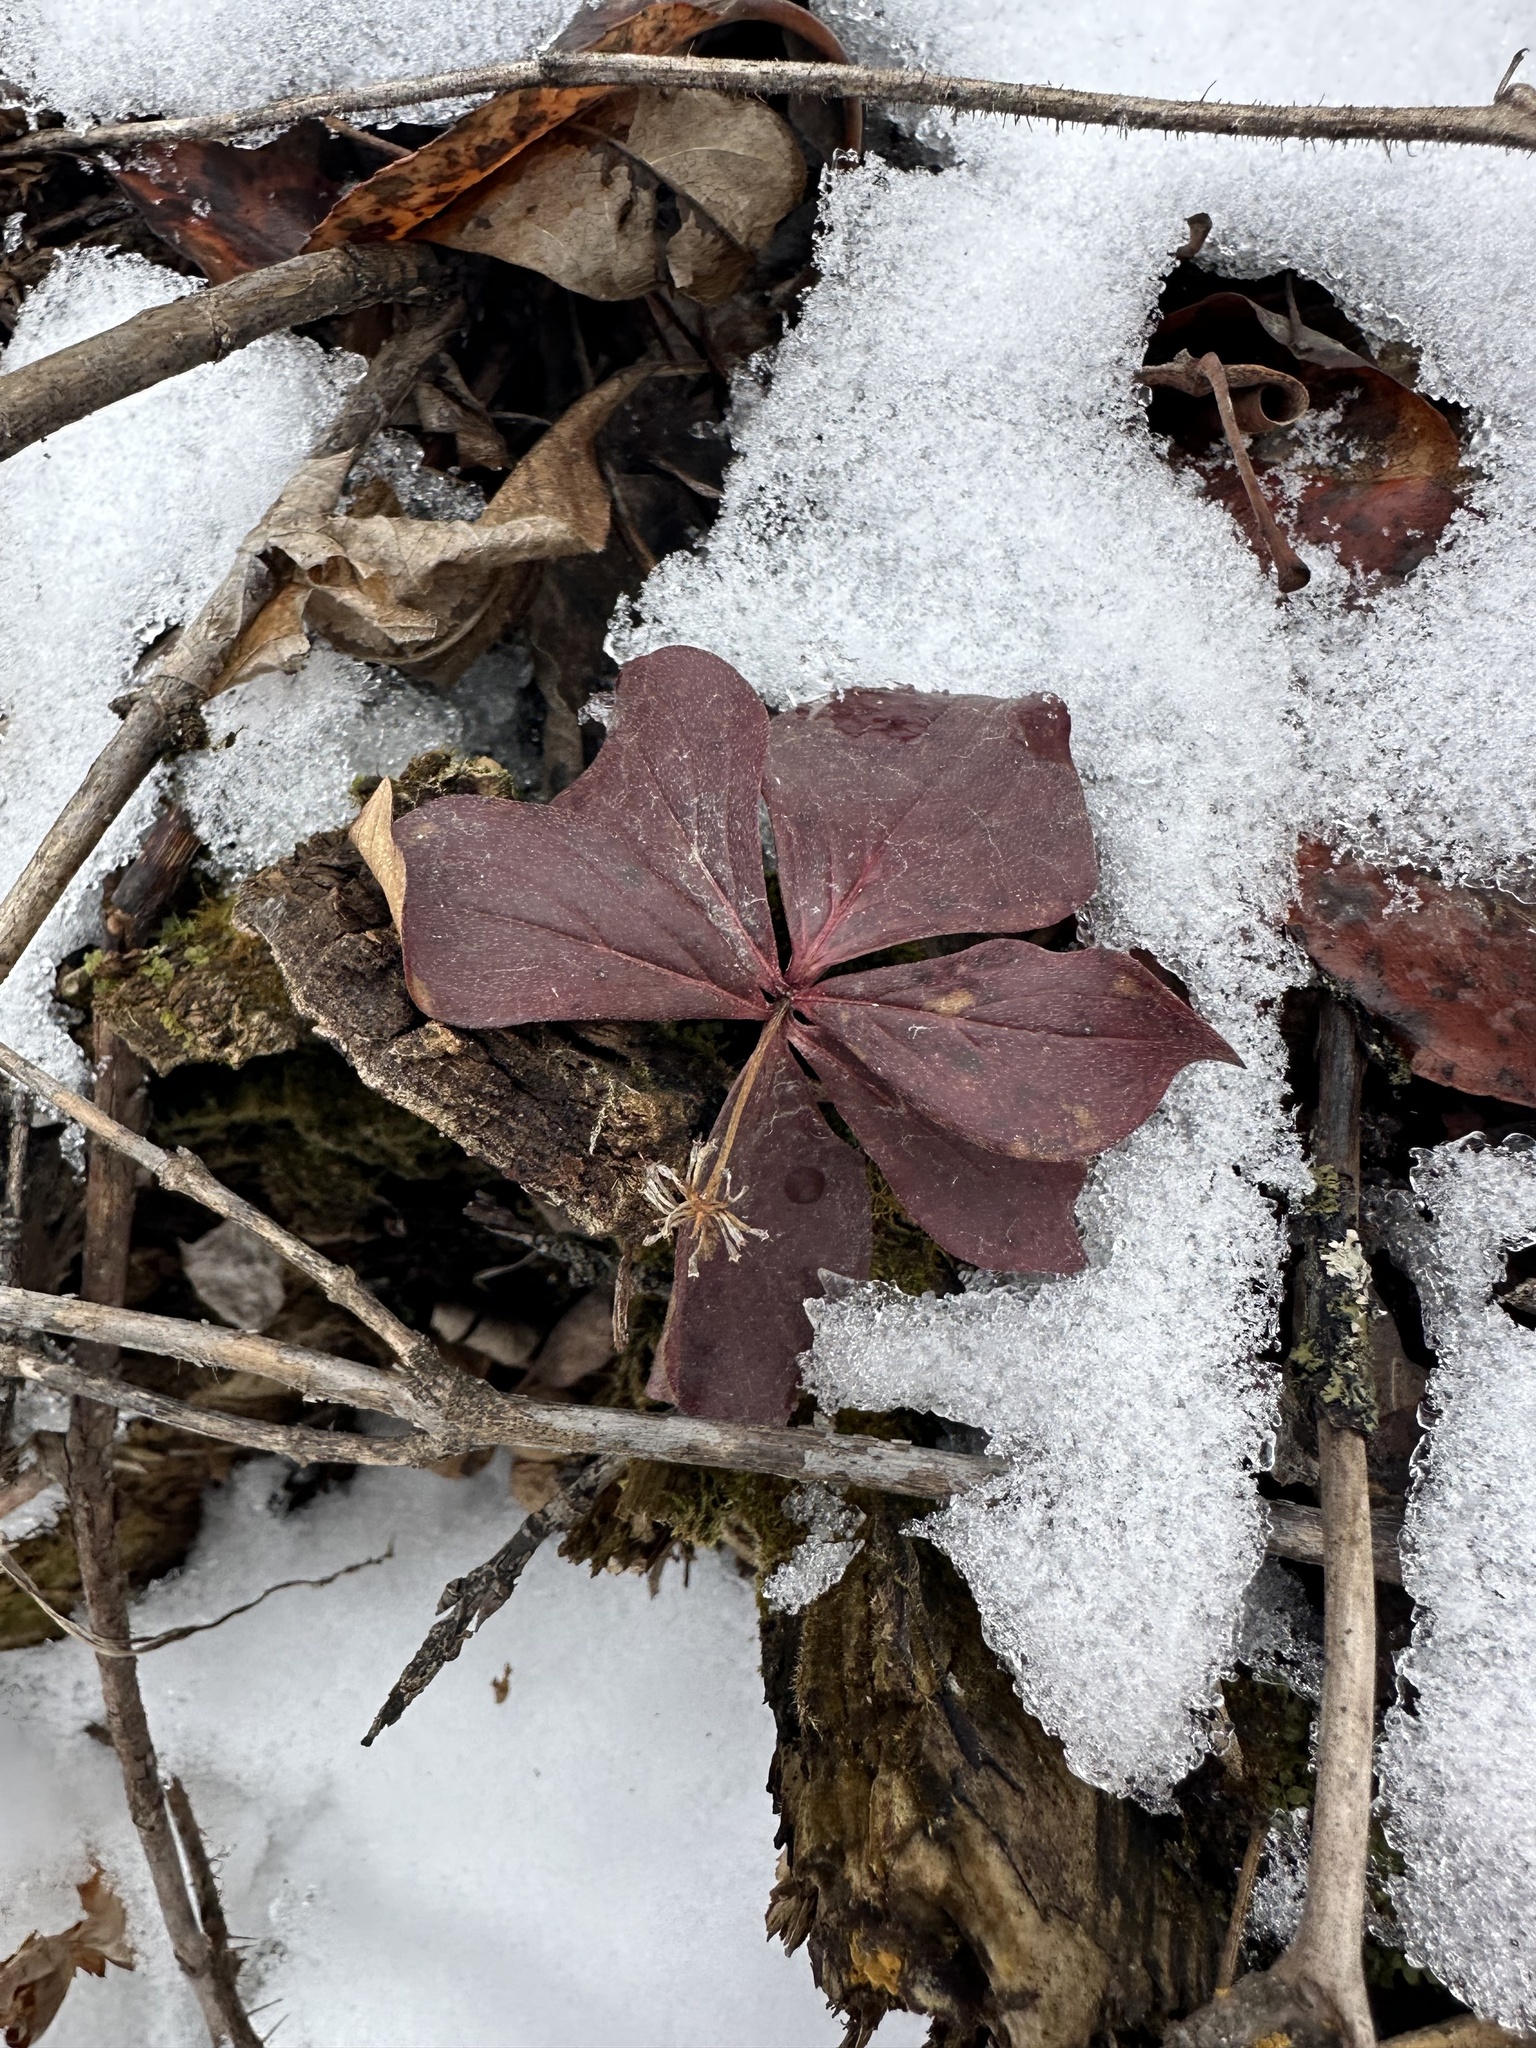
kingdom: Plantae
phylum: Tracheophyta
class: Magnoliopsida
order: Cornales
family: Cornaceae
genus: Cornus
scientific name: Cornus canadensis
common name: Creeping dogwood
